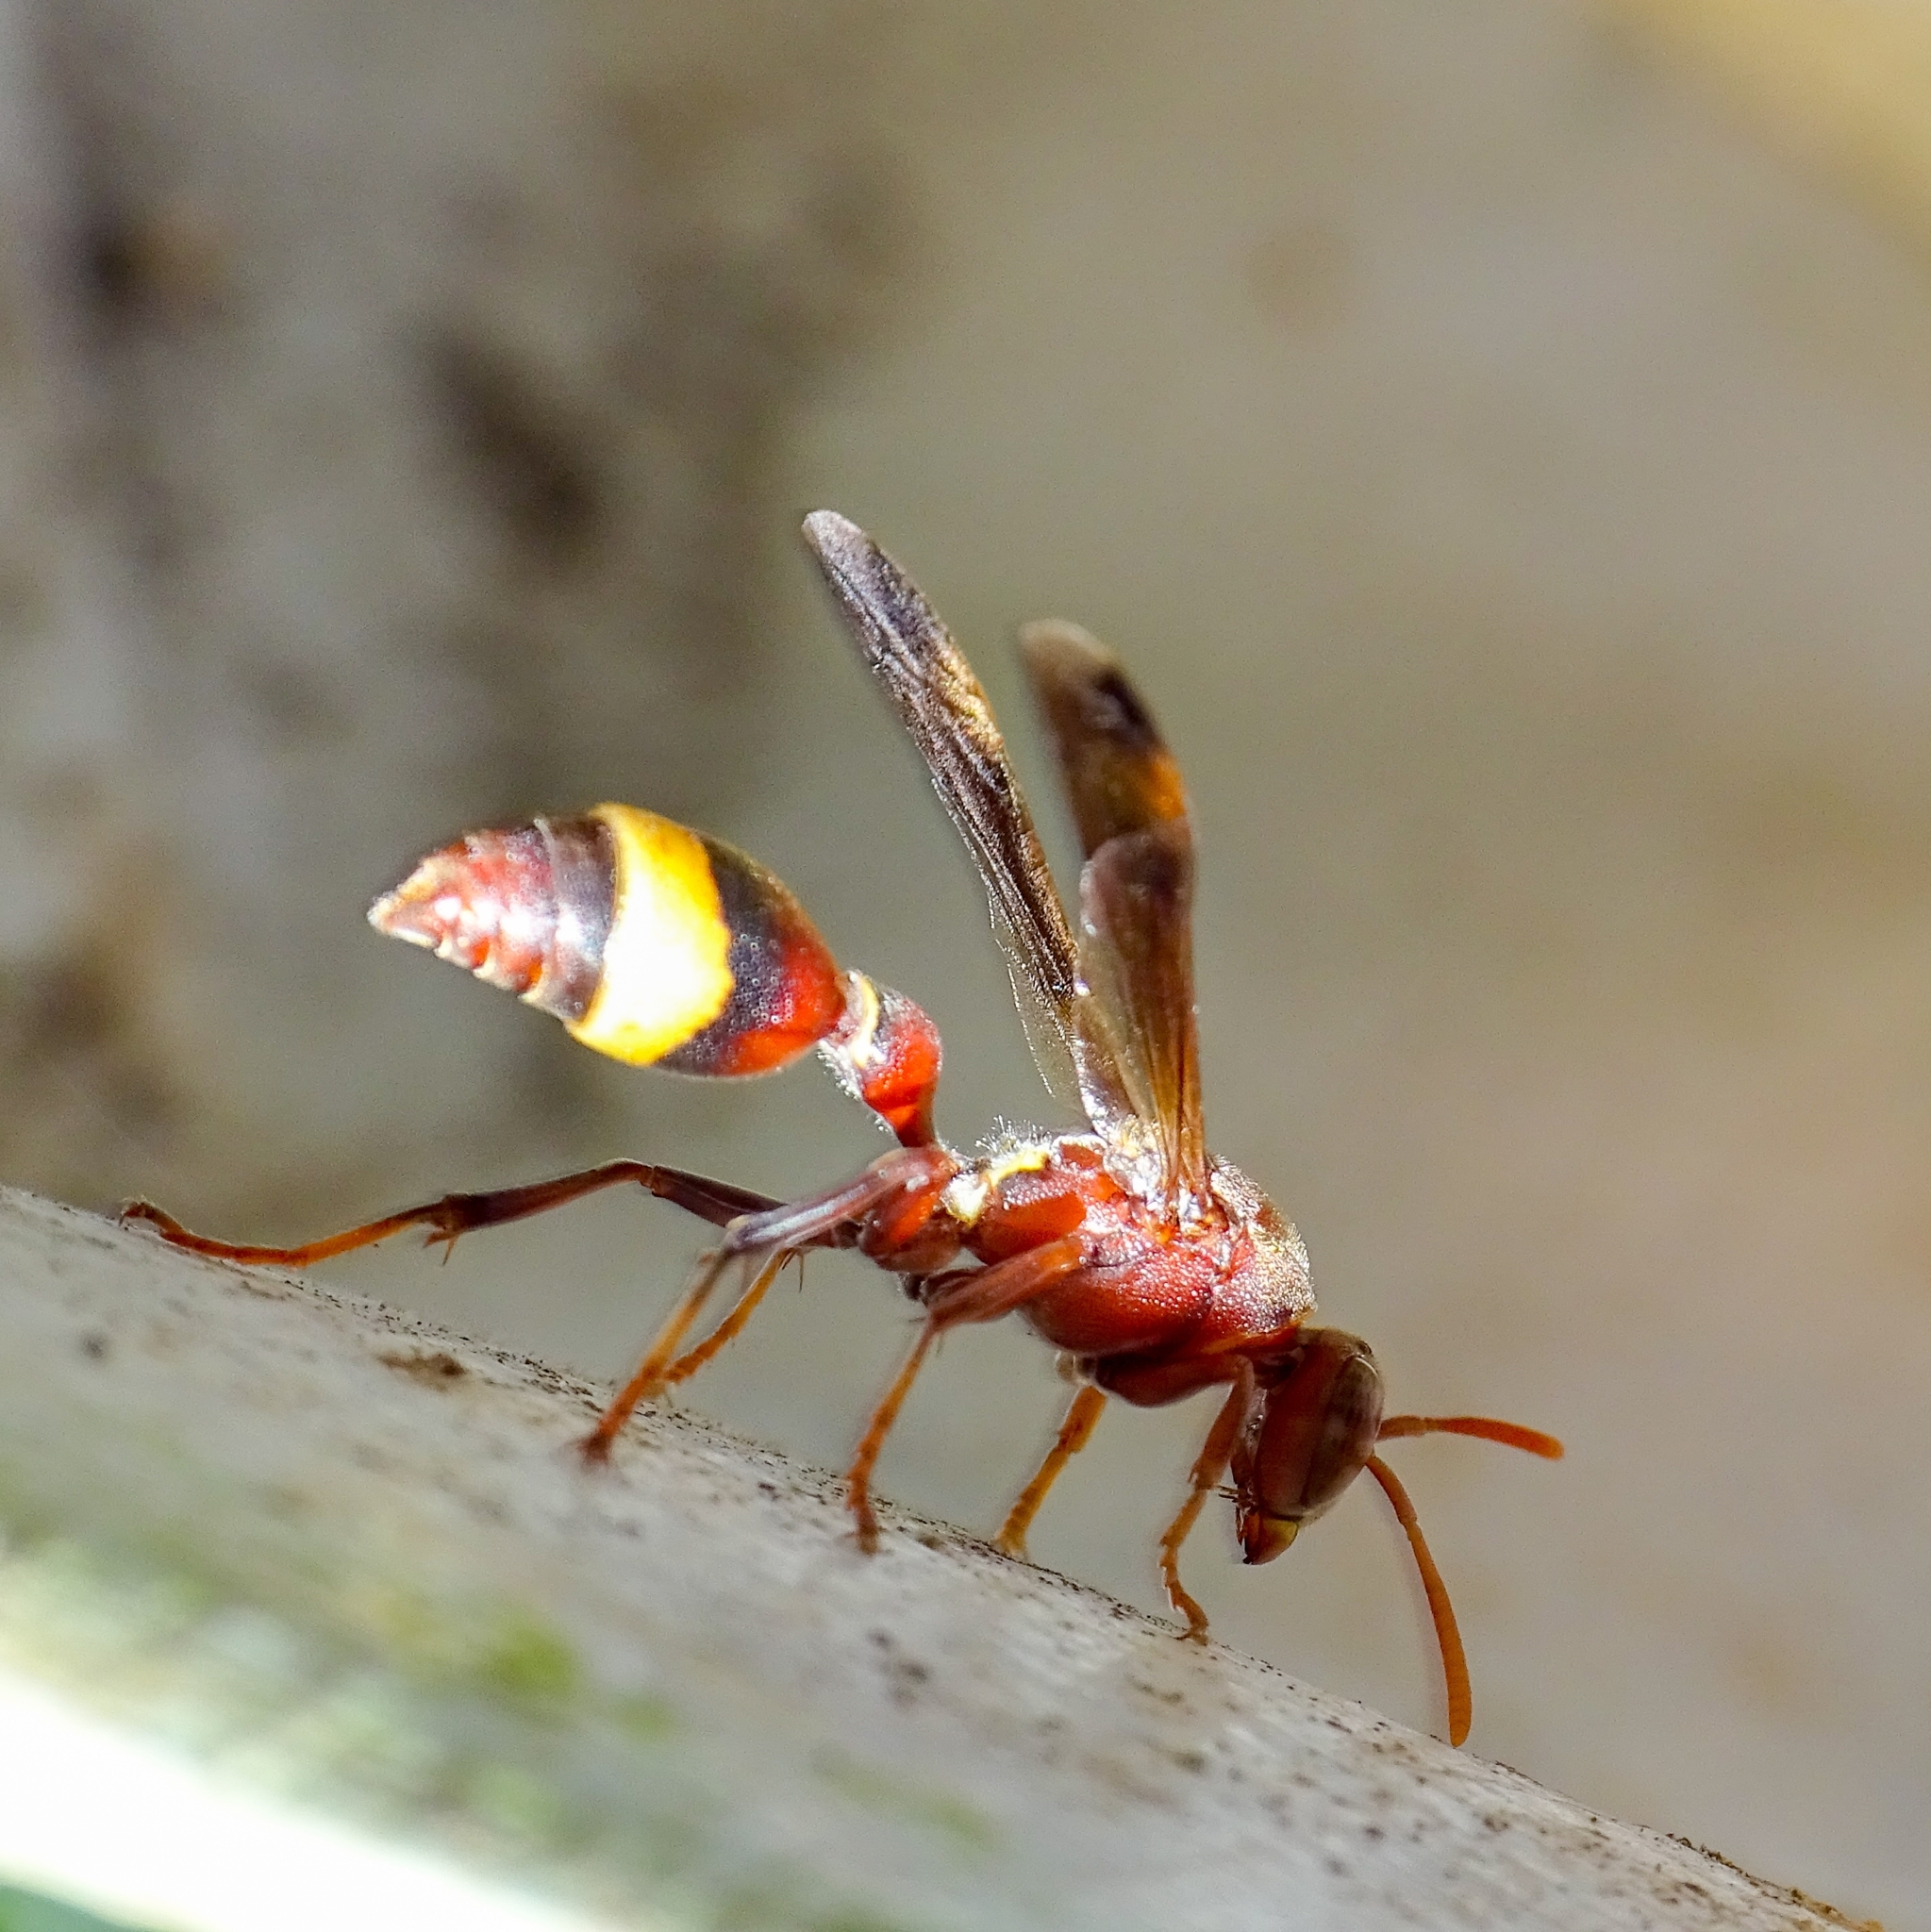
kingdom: Animalia
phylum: Arthropoda
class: Insecta
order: Hymenoptera
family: Vespidae
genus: Ropalidia
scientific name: Ropalidia
